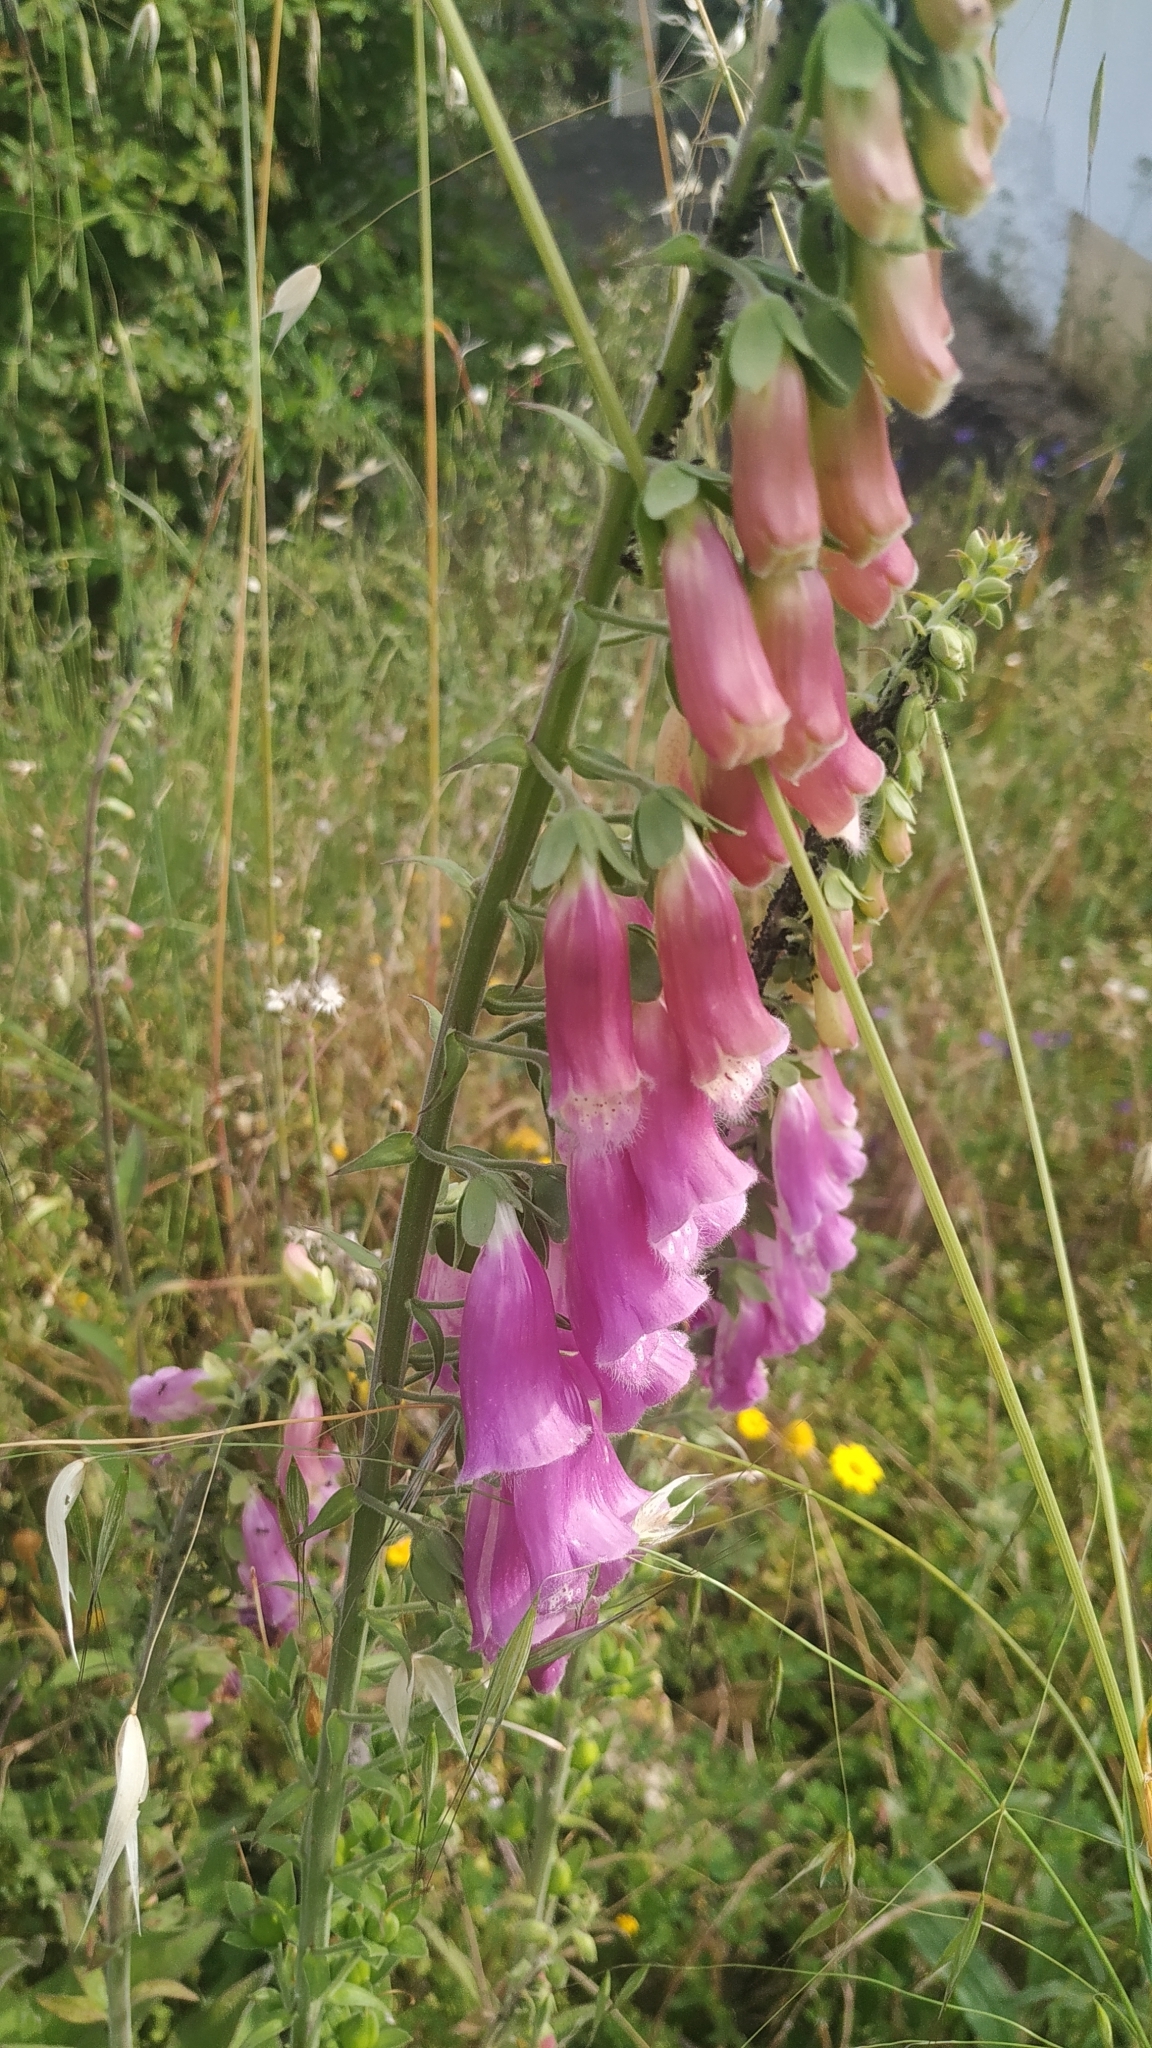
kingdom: Plantae
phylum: Tracheophyta
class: Magnoliopsida
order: Lamiales
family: Plantaginaceae
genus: Digitalis
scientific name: Digitalis purpurea
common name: Foxglove
